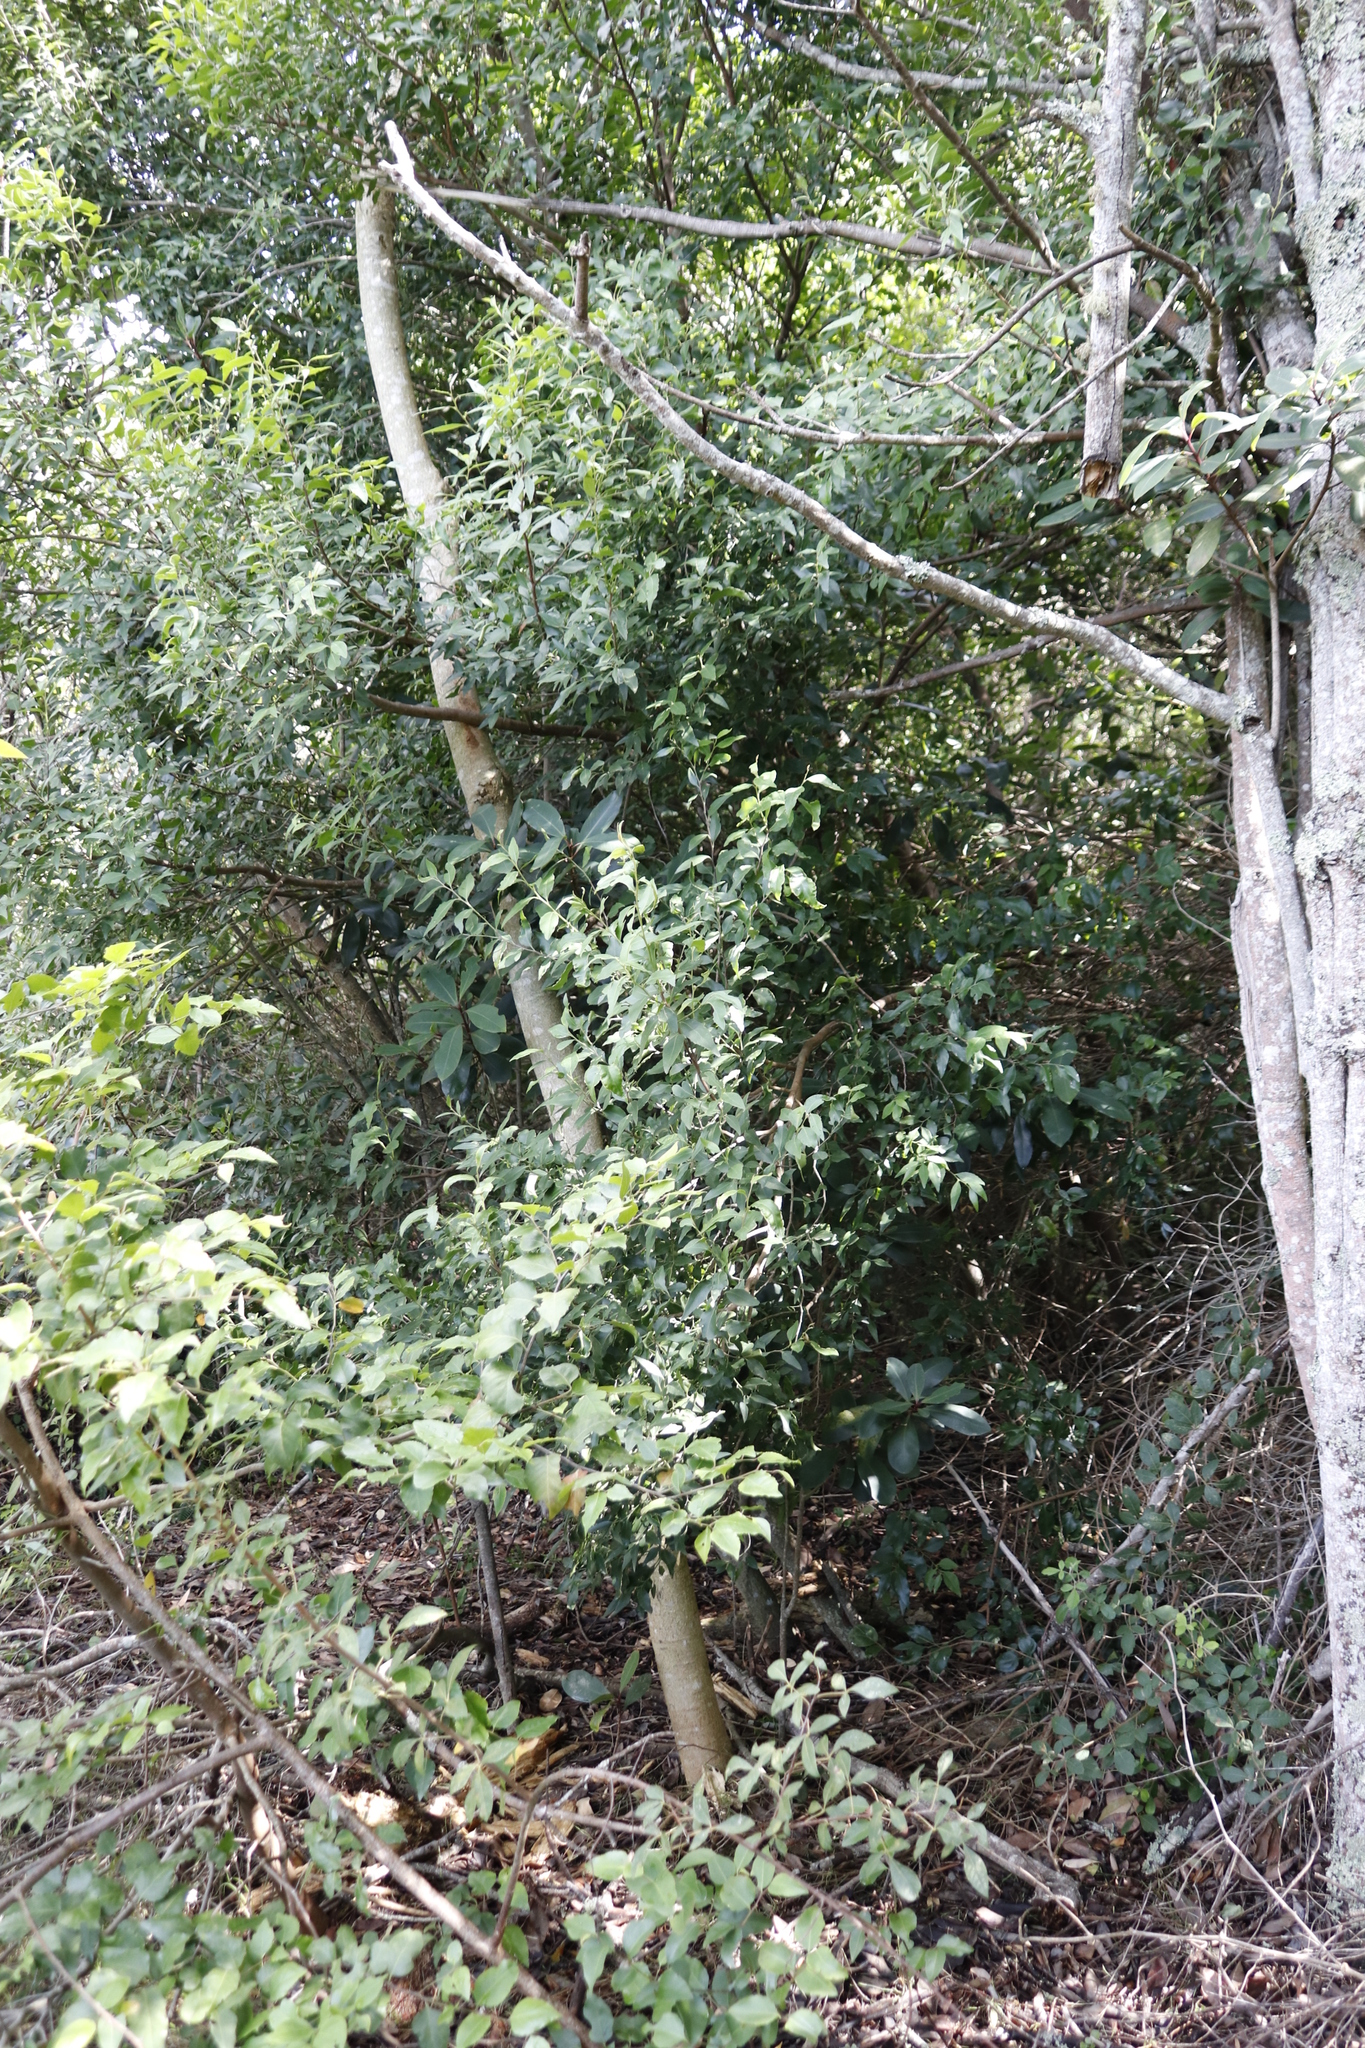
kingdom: Plantae
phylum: Tracheophyta
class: Magnoliopsida
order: Celastrales
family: Celastraceae
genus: Gymnosporia
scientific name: Gymnosporia acuminata
